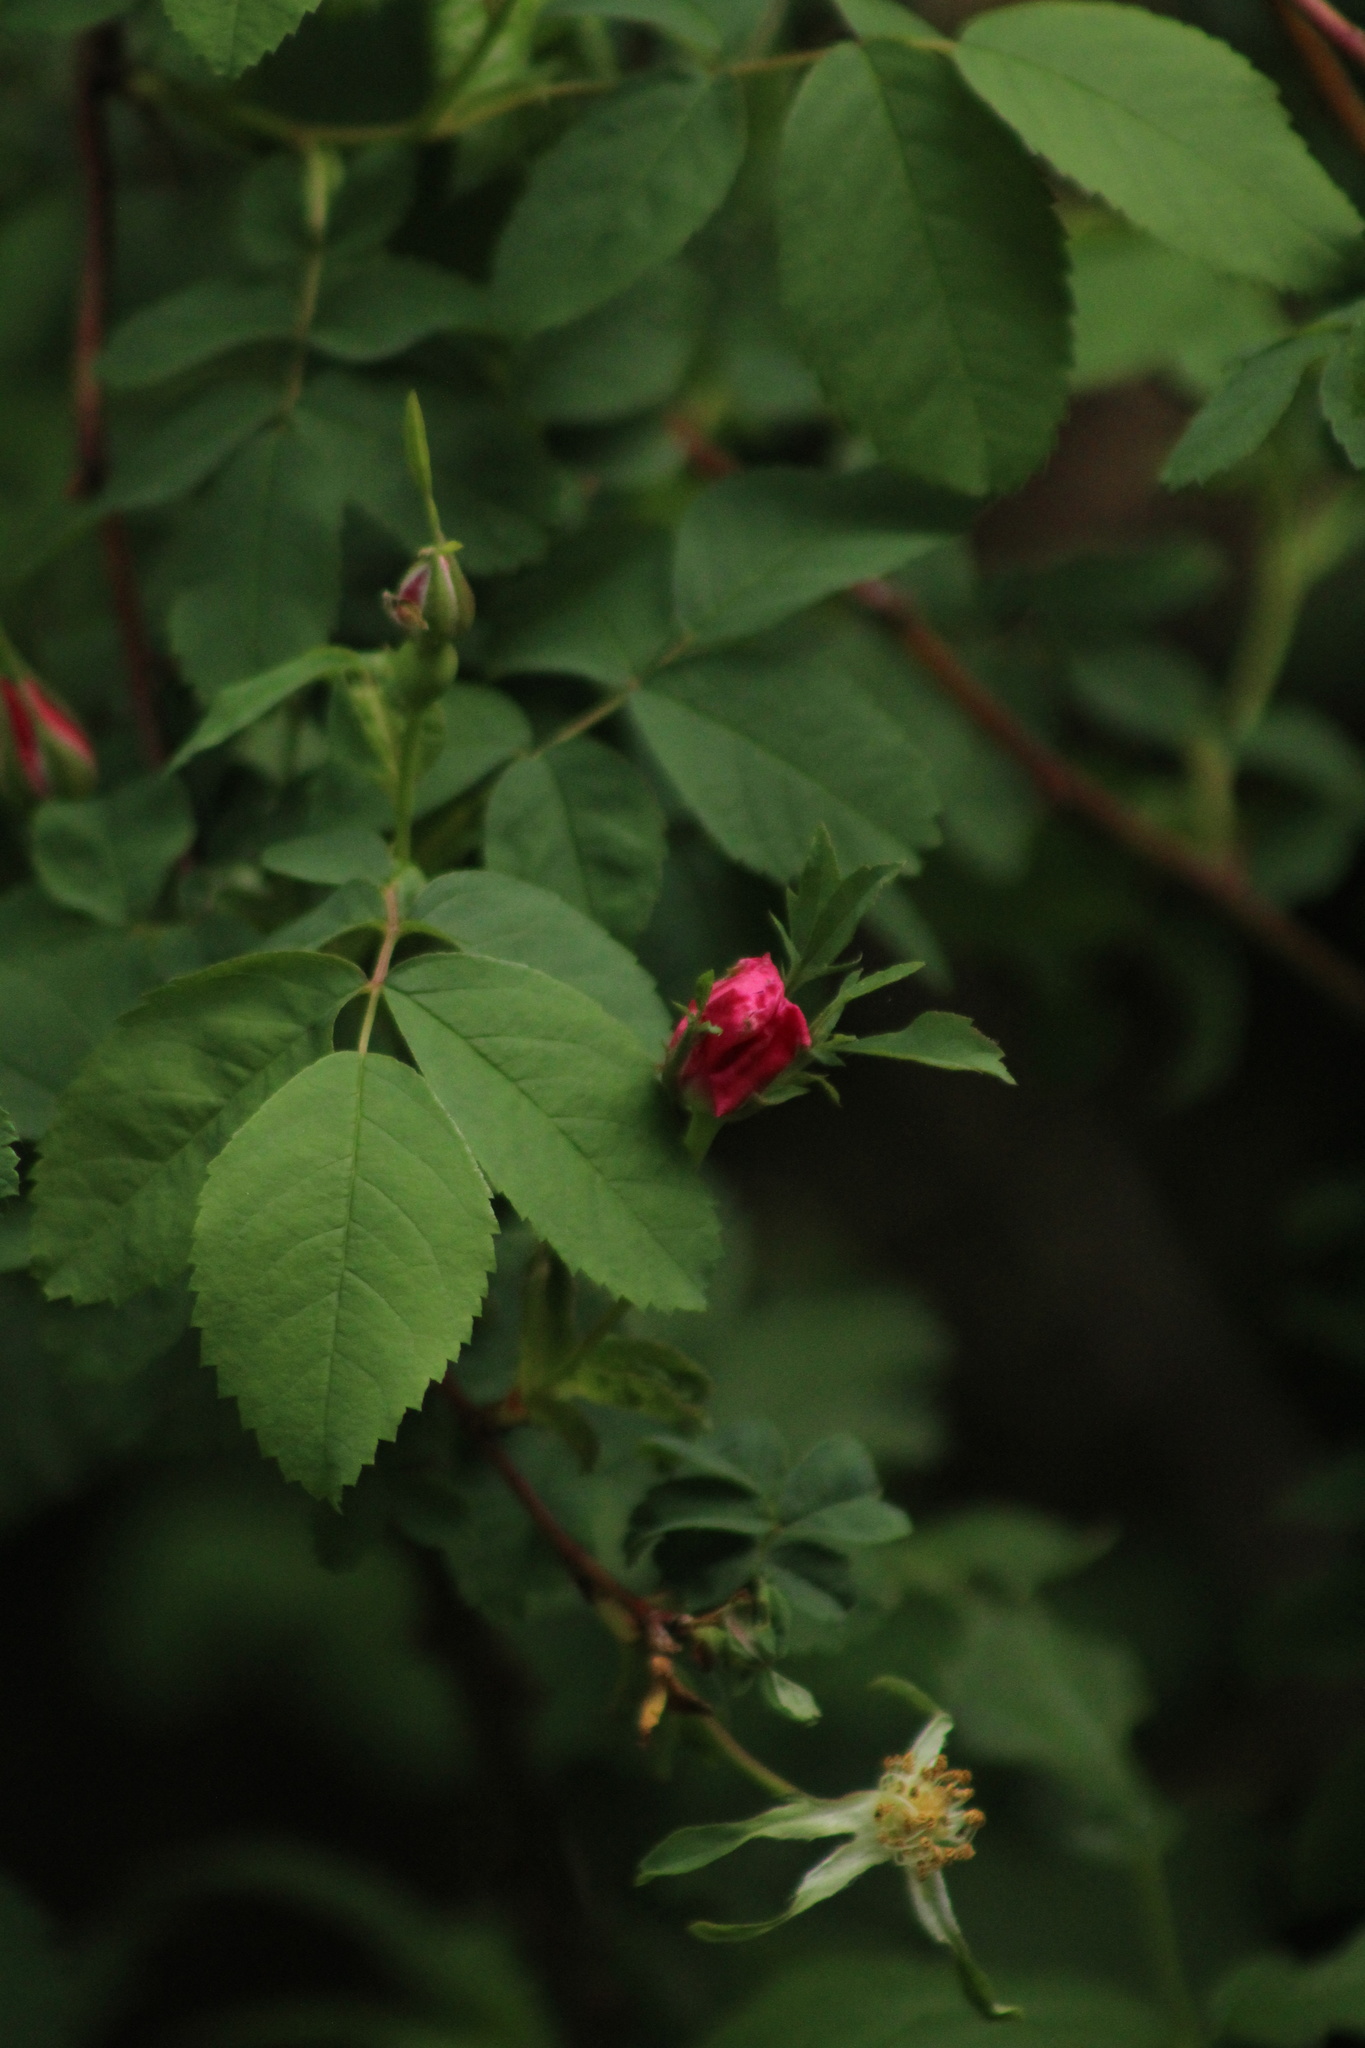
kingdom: Plantae
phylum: Tracheophyta
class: Magnoliopsida
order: Rosales
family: Rosaceae
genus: Rosa
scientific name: Rosa nutkana
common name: Nootka rose
